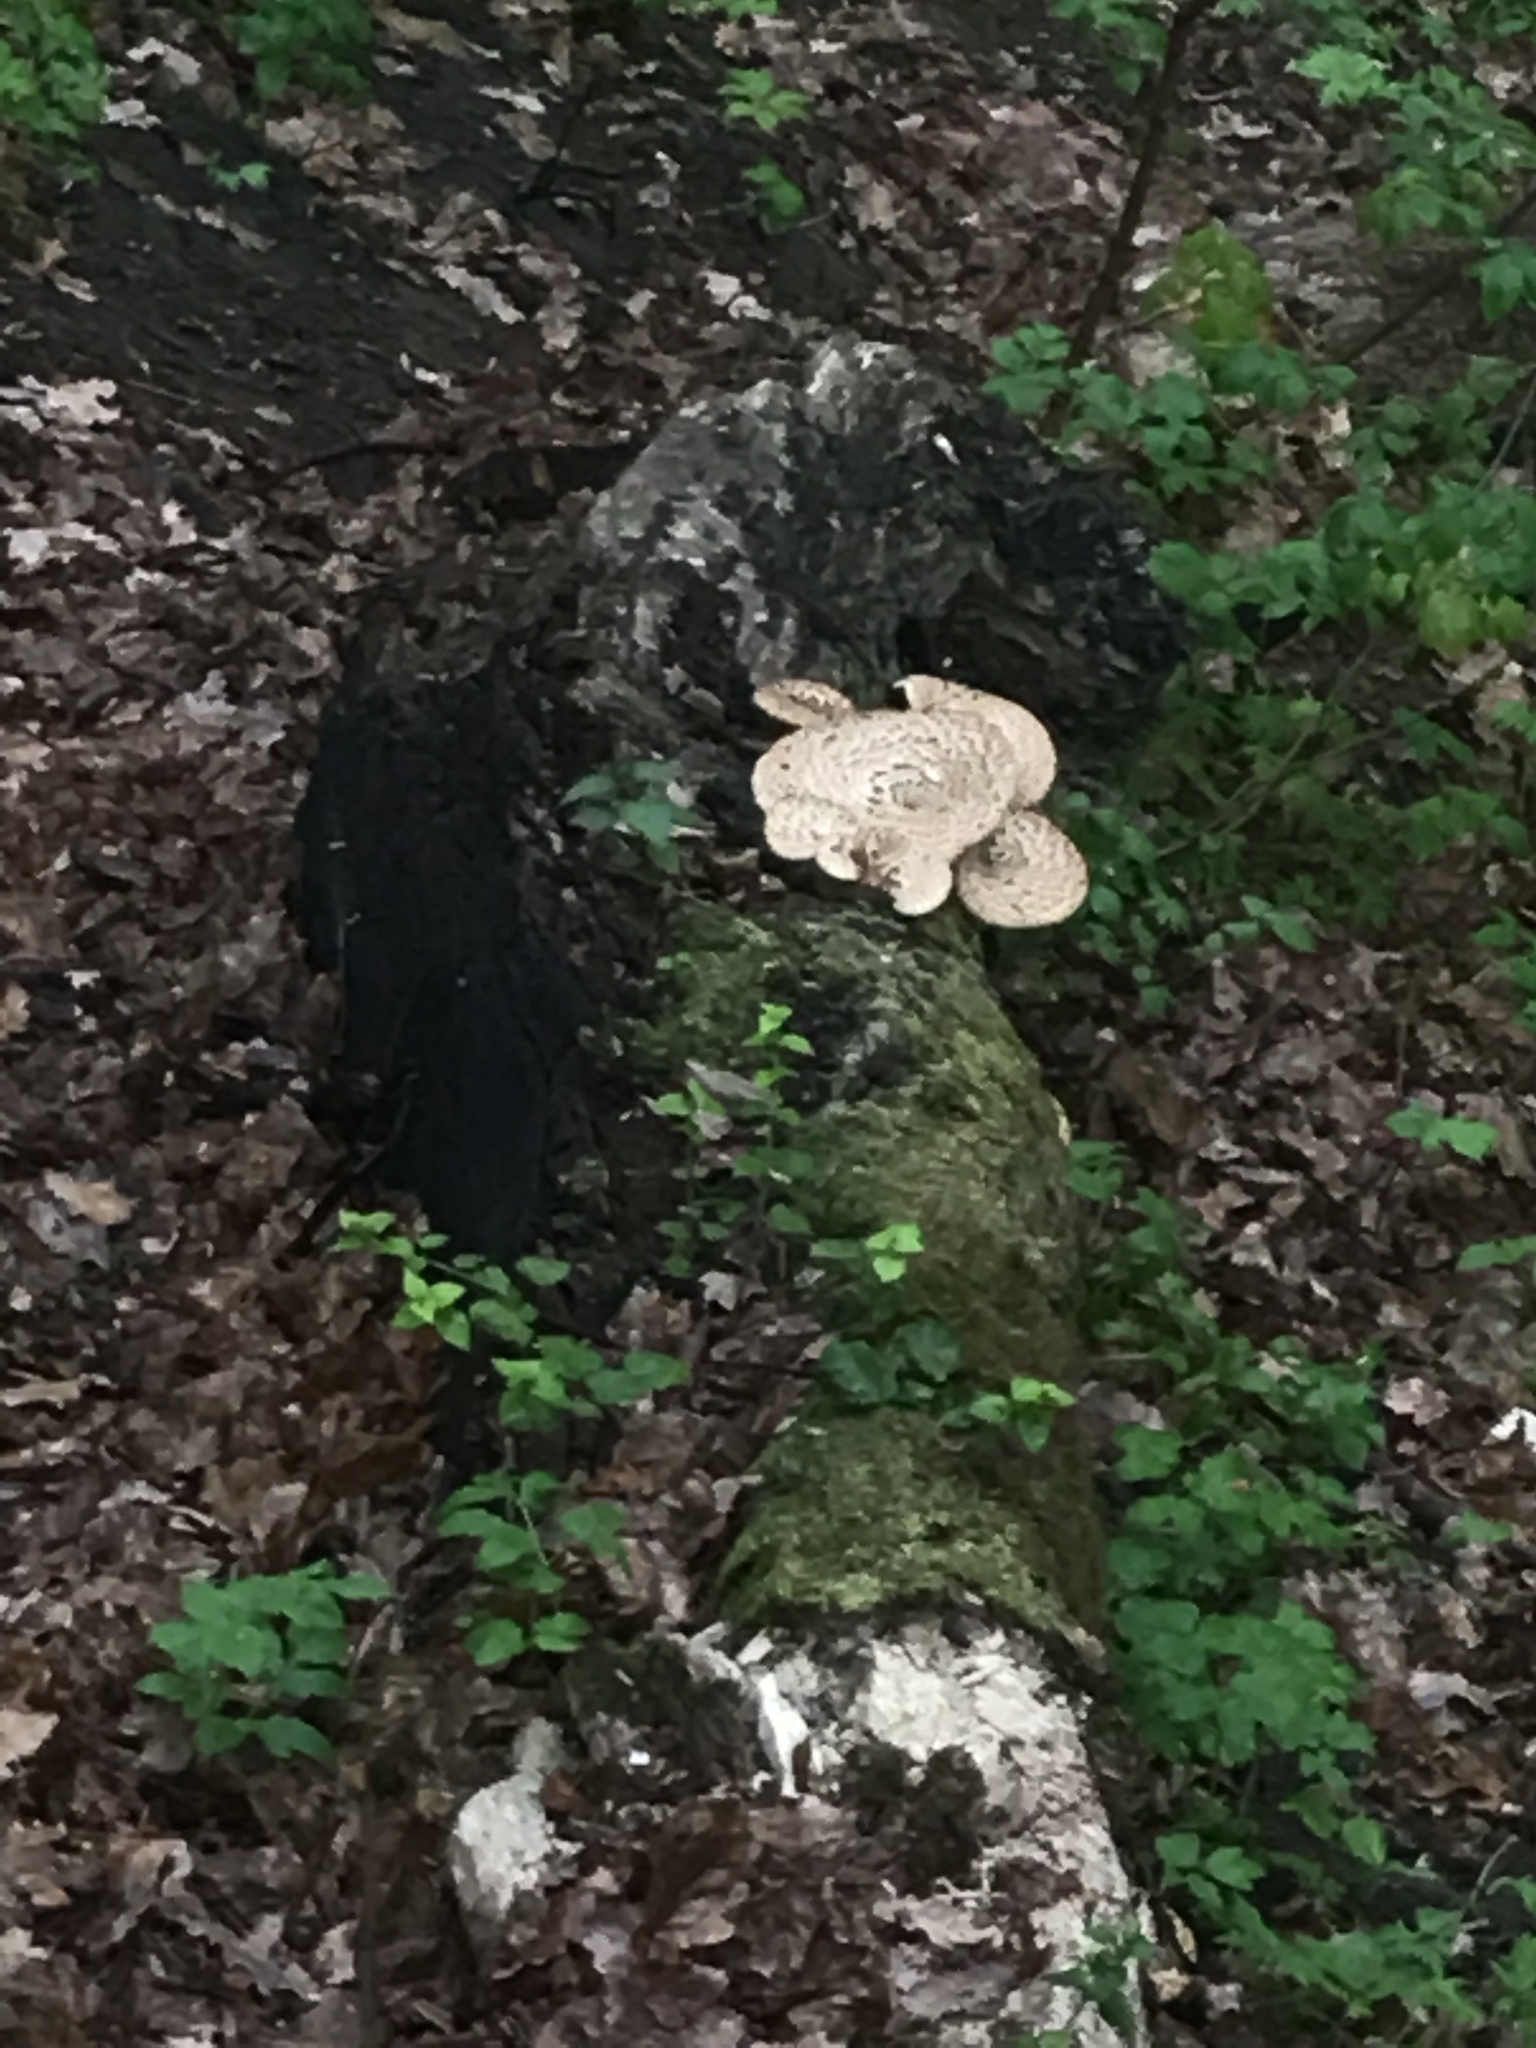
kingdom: Fungi
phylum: Basidiomycota
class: Agaricomycetes
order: Polyporales
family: Polyporaceae
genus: Cerioporus
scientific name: Cerioporus squamosus
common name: Dryad's saddle
